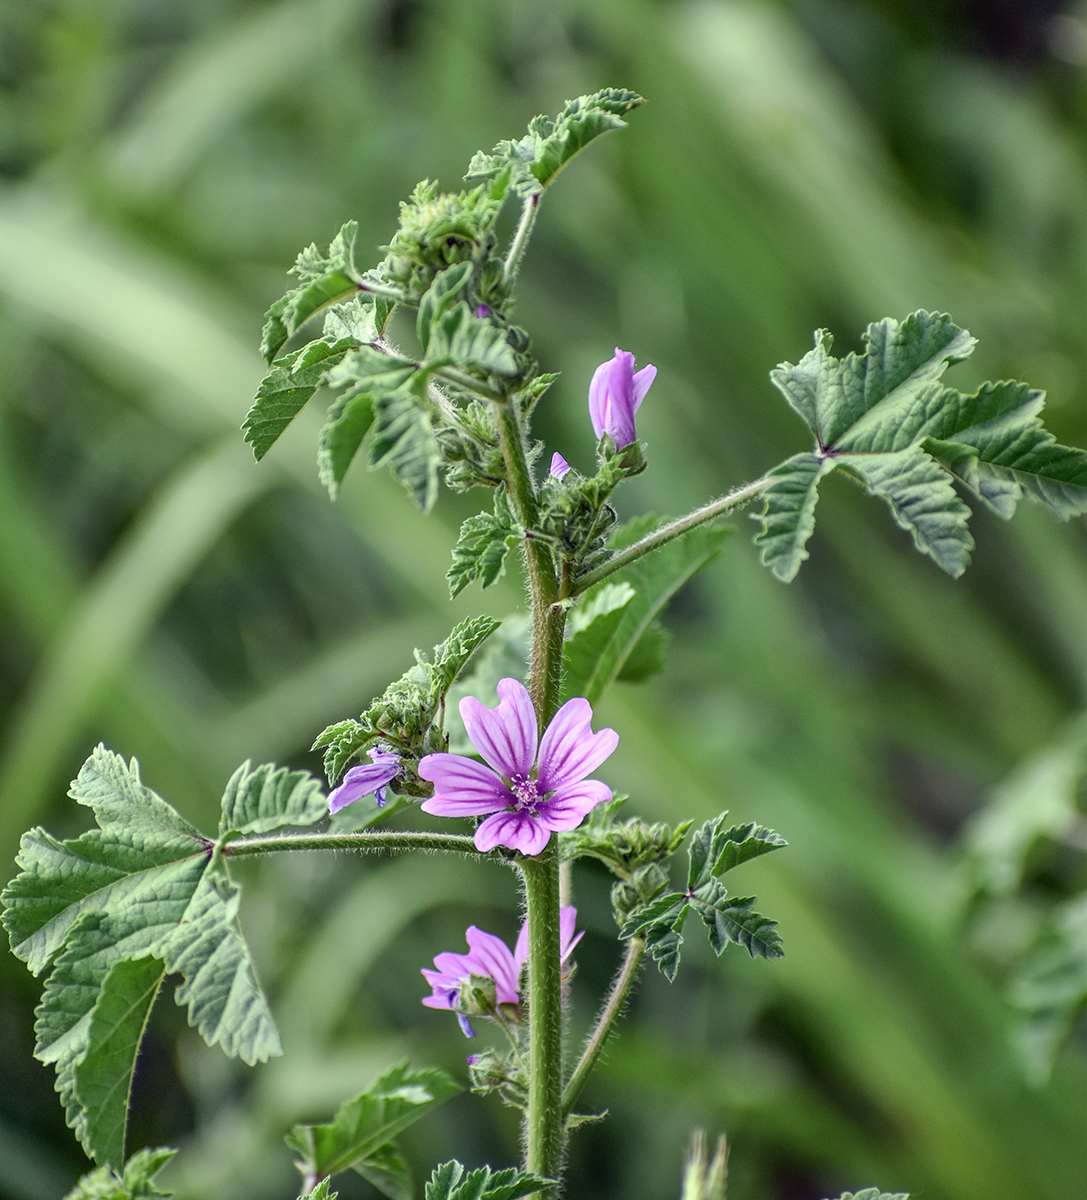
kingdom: Plantae
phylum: Tracheophyta
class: Magnoliopsida
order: Malvales
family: Malvaceae
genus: Malva
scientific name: Malva sylvestris
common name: Common mallow
